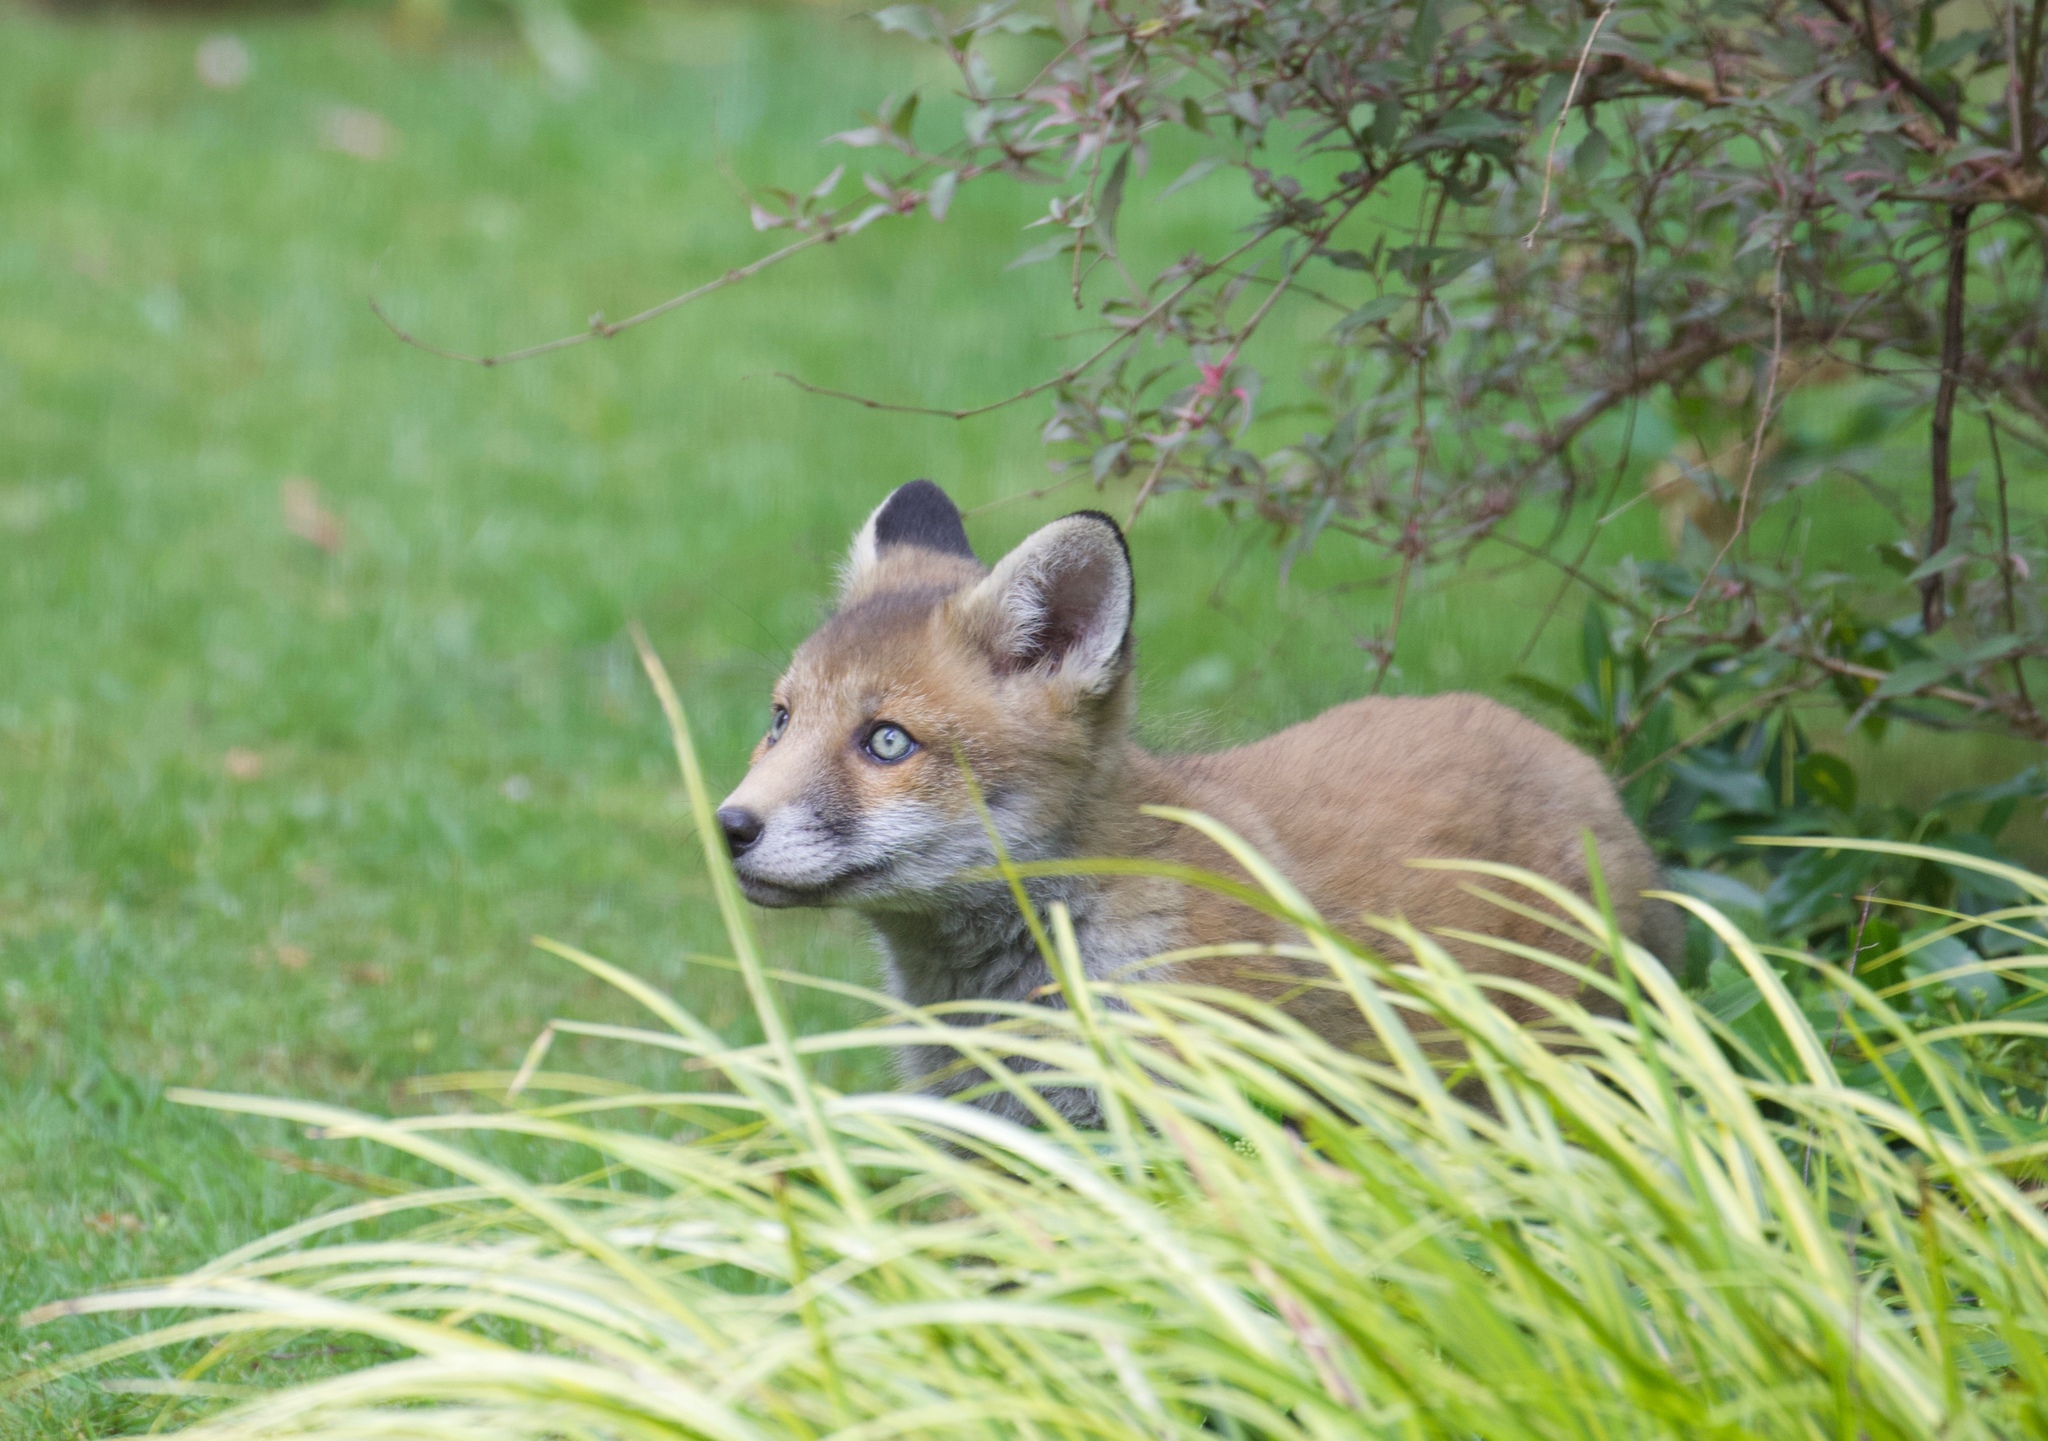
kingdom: Animalia
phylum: Chordata
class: Mammalia
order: Carnivora
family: Canidae
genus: Vulpes
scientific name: Vulpes vulpes
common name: Red fox
